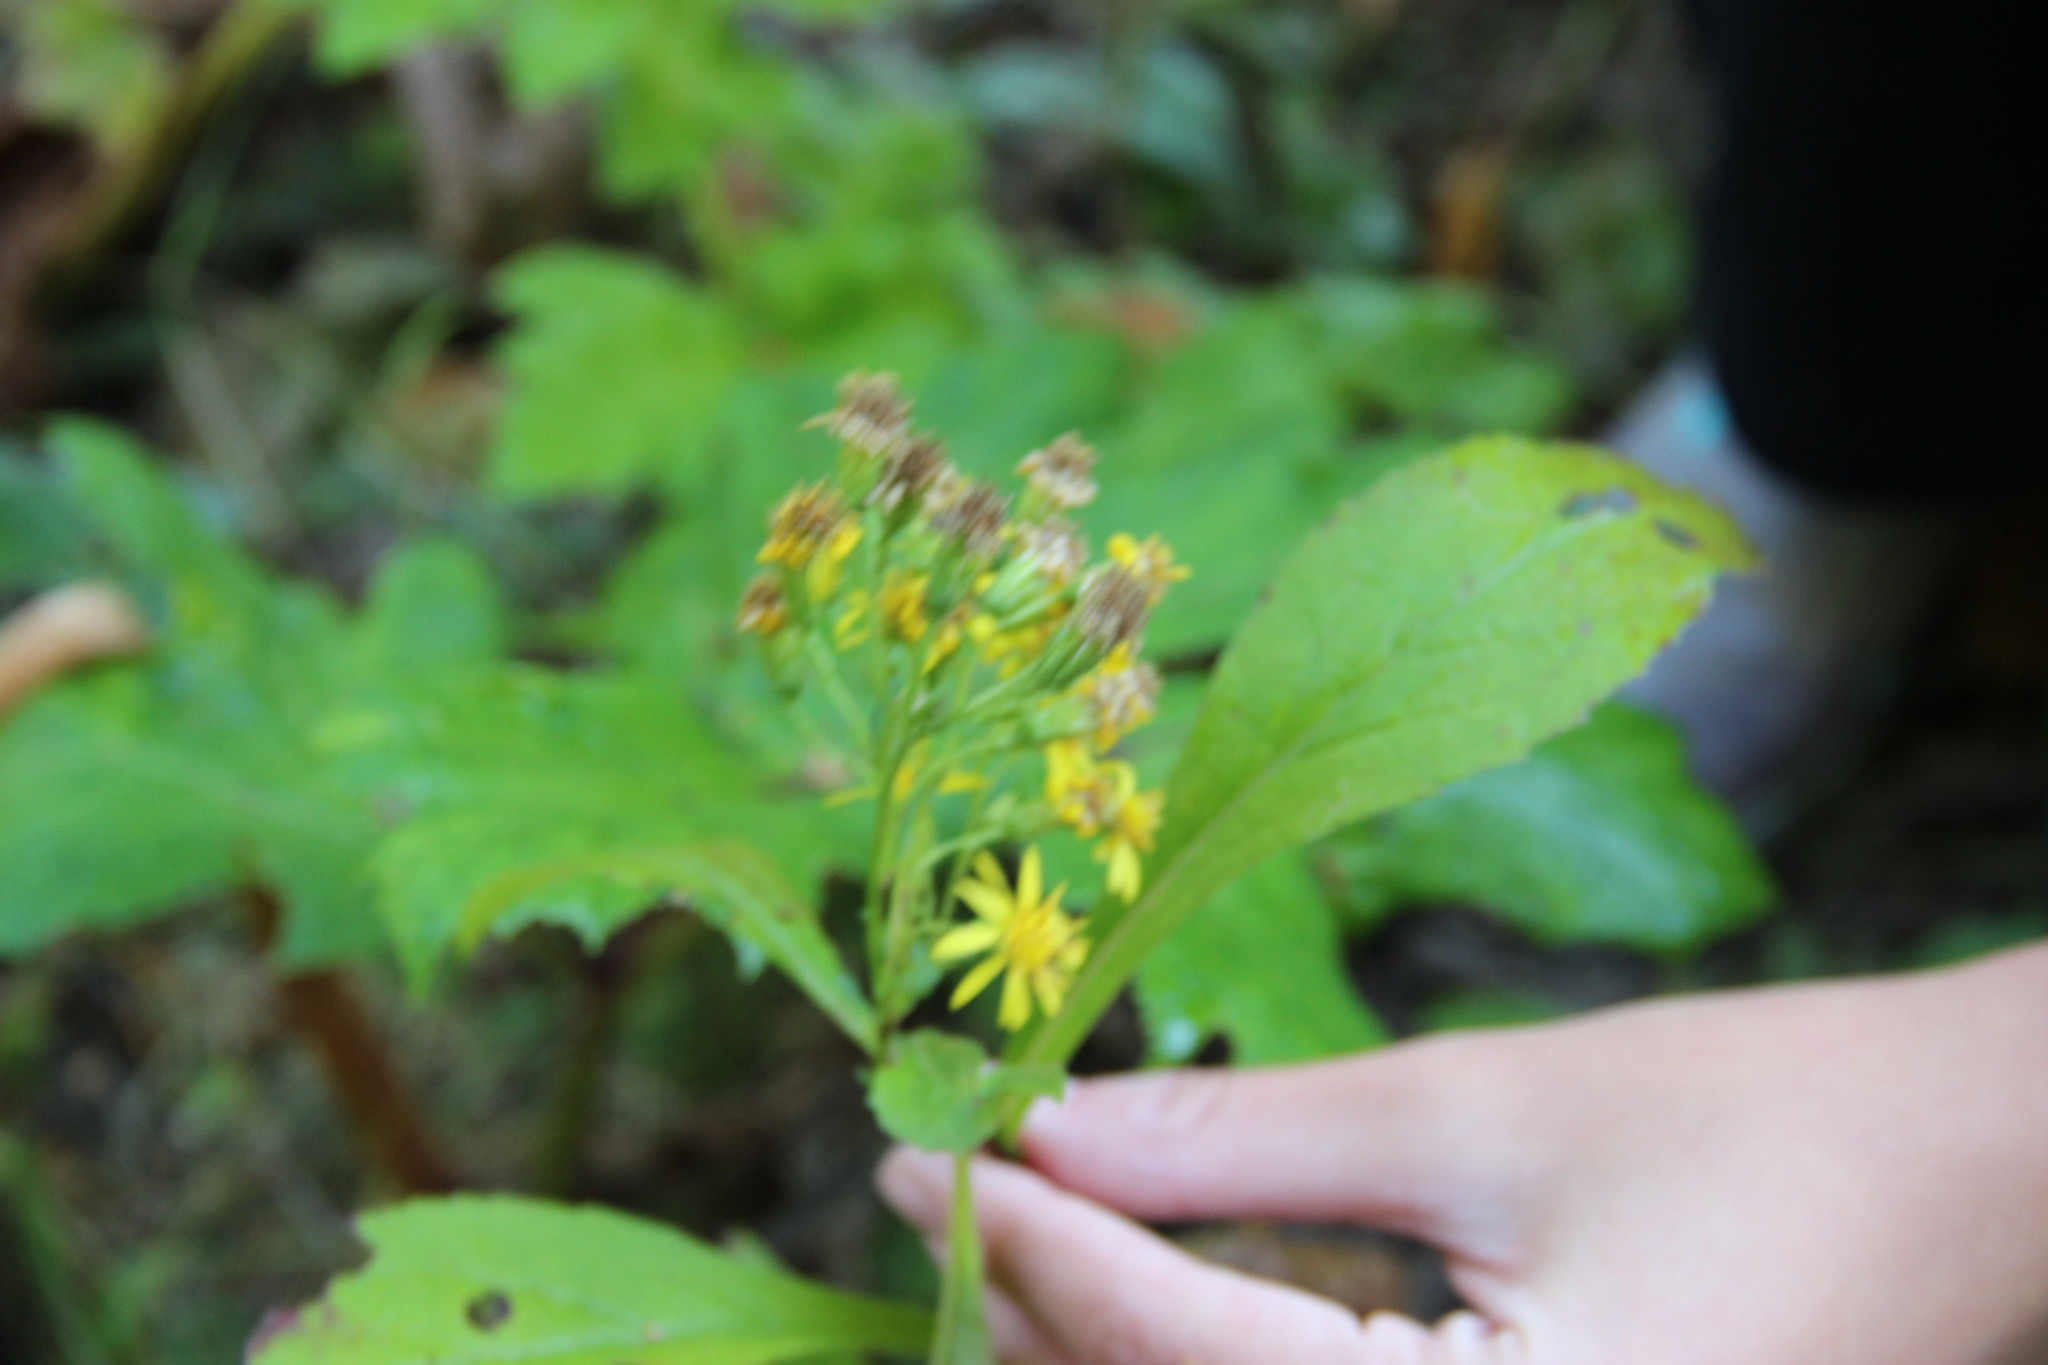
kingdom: Plantae
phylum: Tracheophyta
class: Magnoliopsida
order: Asterales
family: Asteraceae
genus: Solidago
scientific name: Solidago virgaurea
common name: Goldenrod
